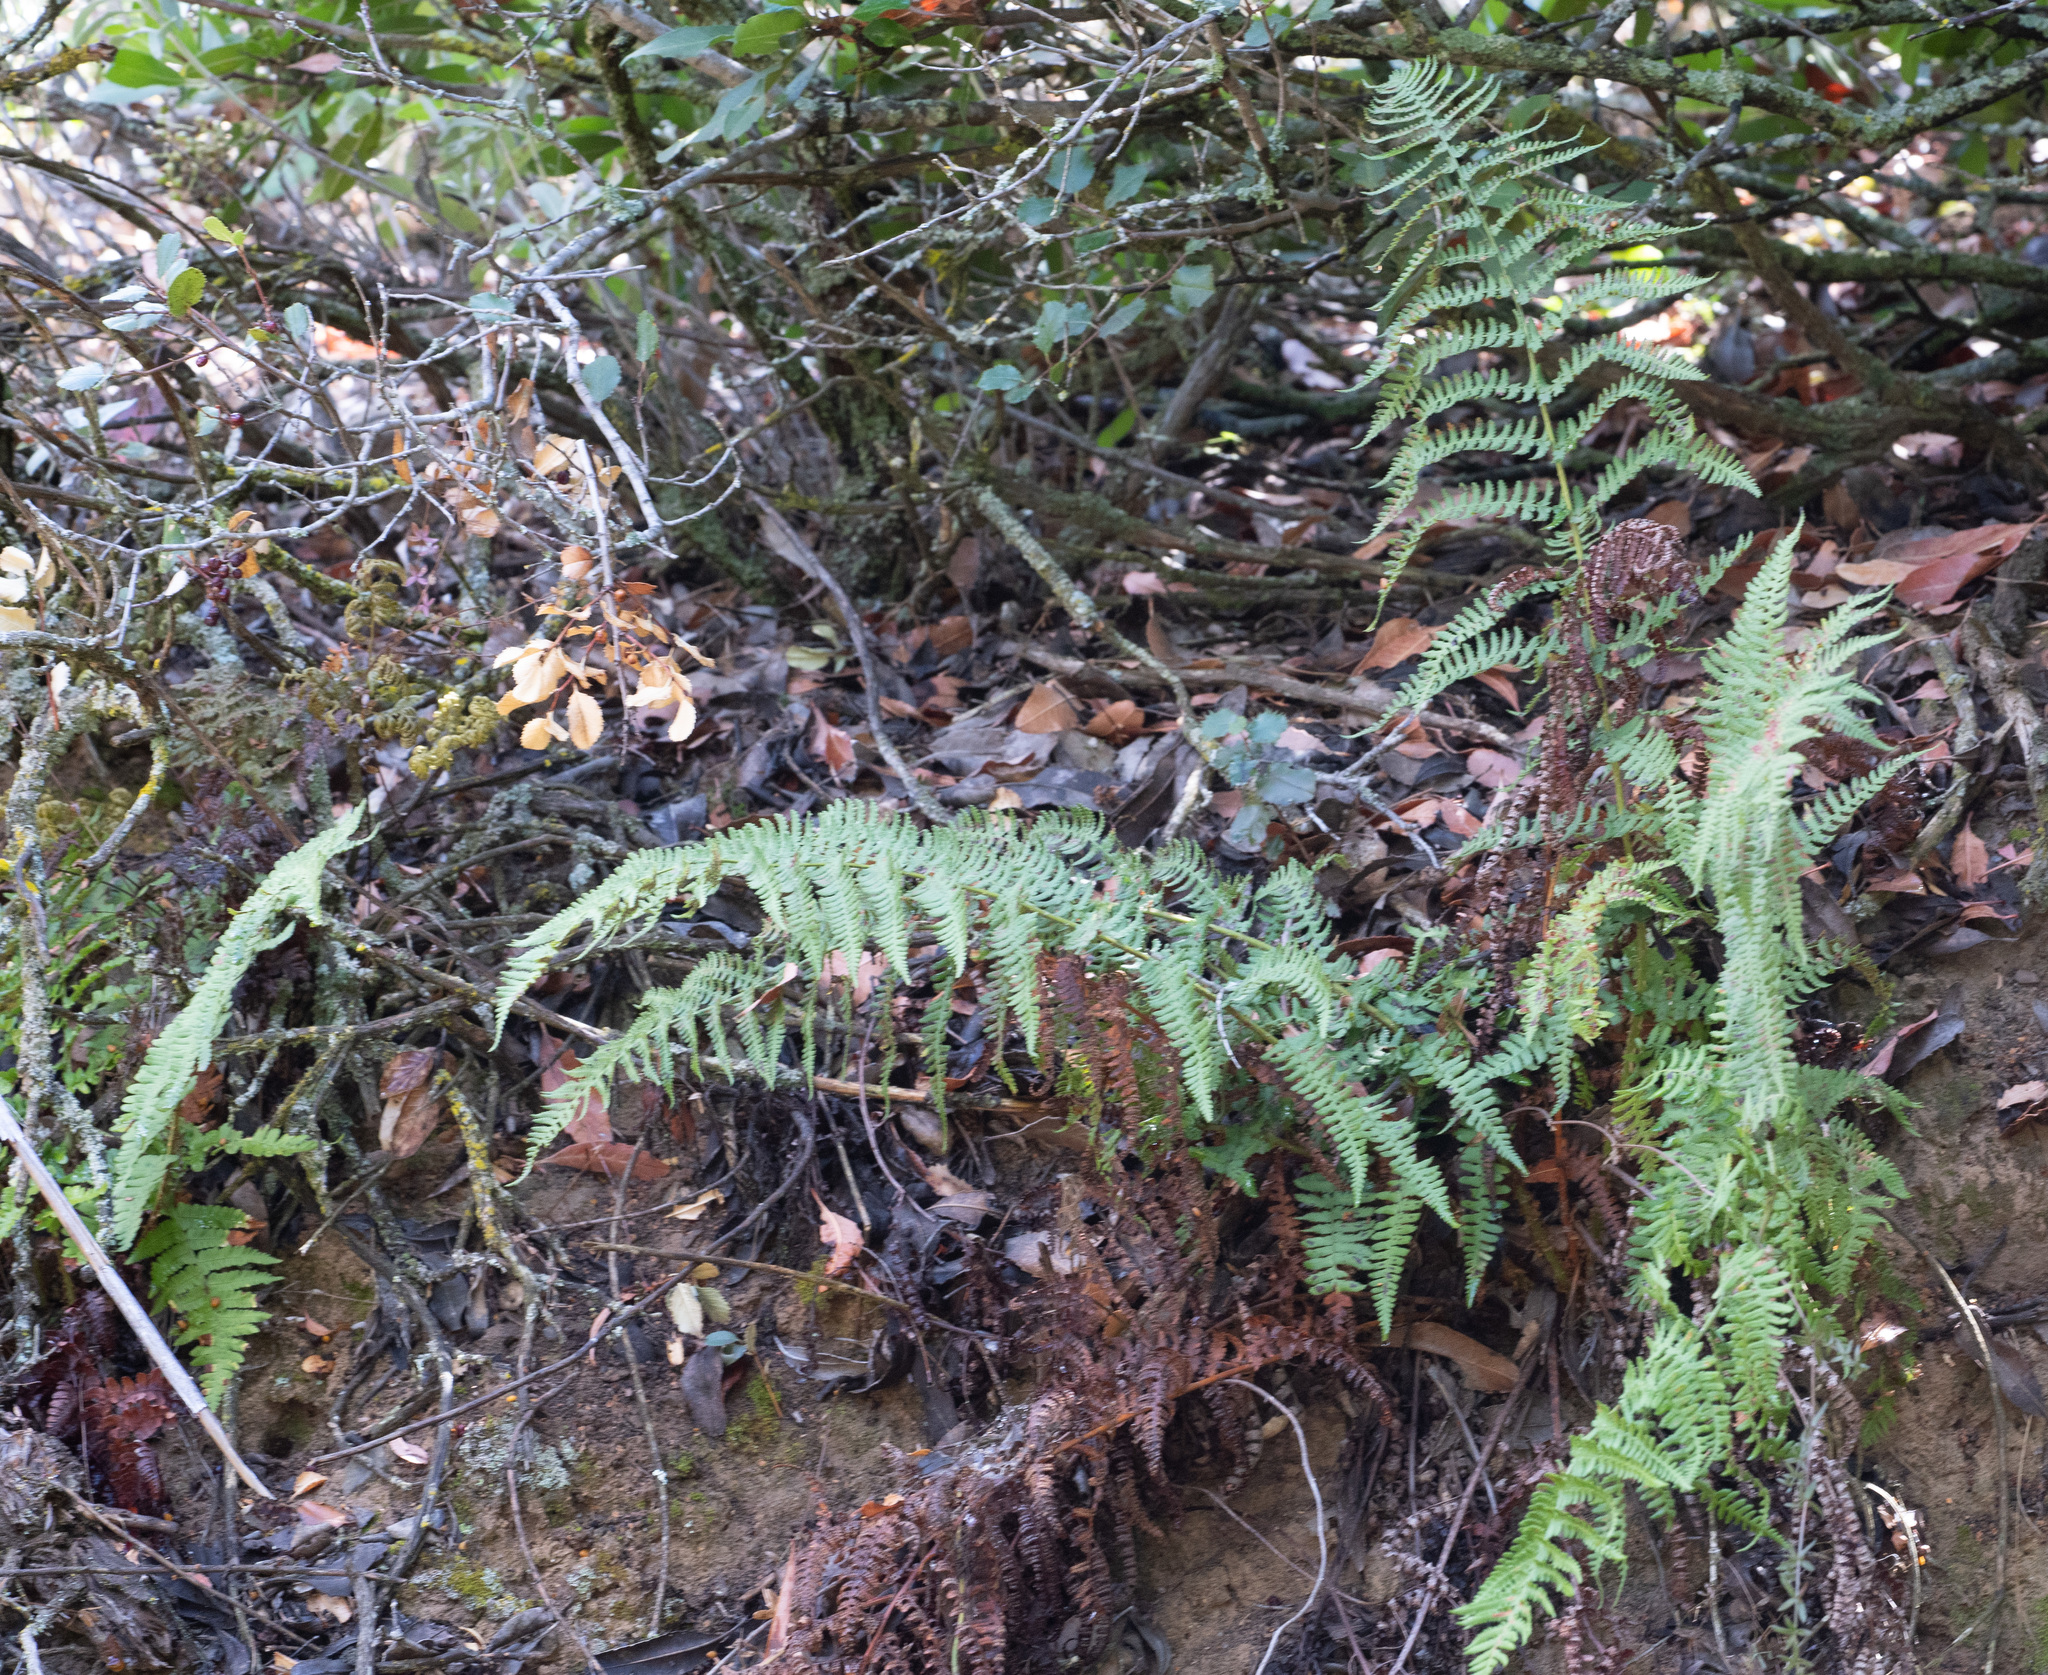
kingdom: Plantae
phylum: Tracheophyta
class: Polypodiopsida
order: Polypodiales
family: Dryopteridaceae
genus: Dryopteris
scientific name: Dryopteris arguta
